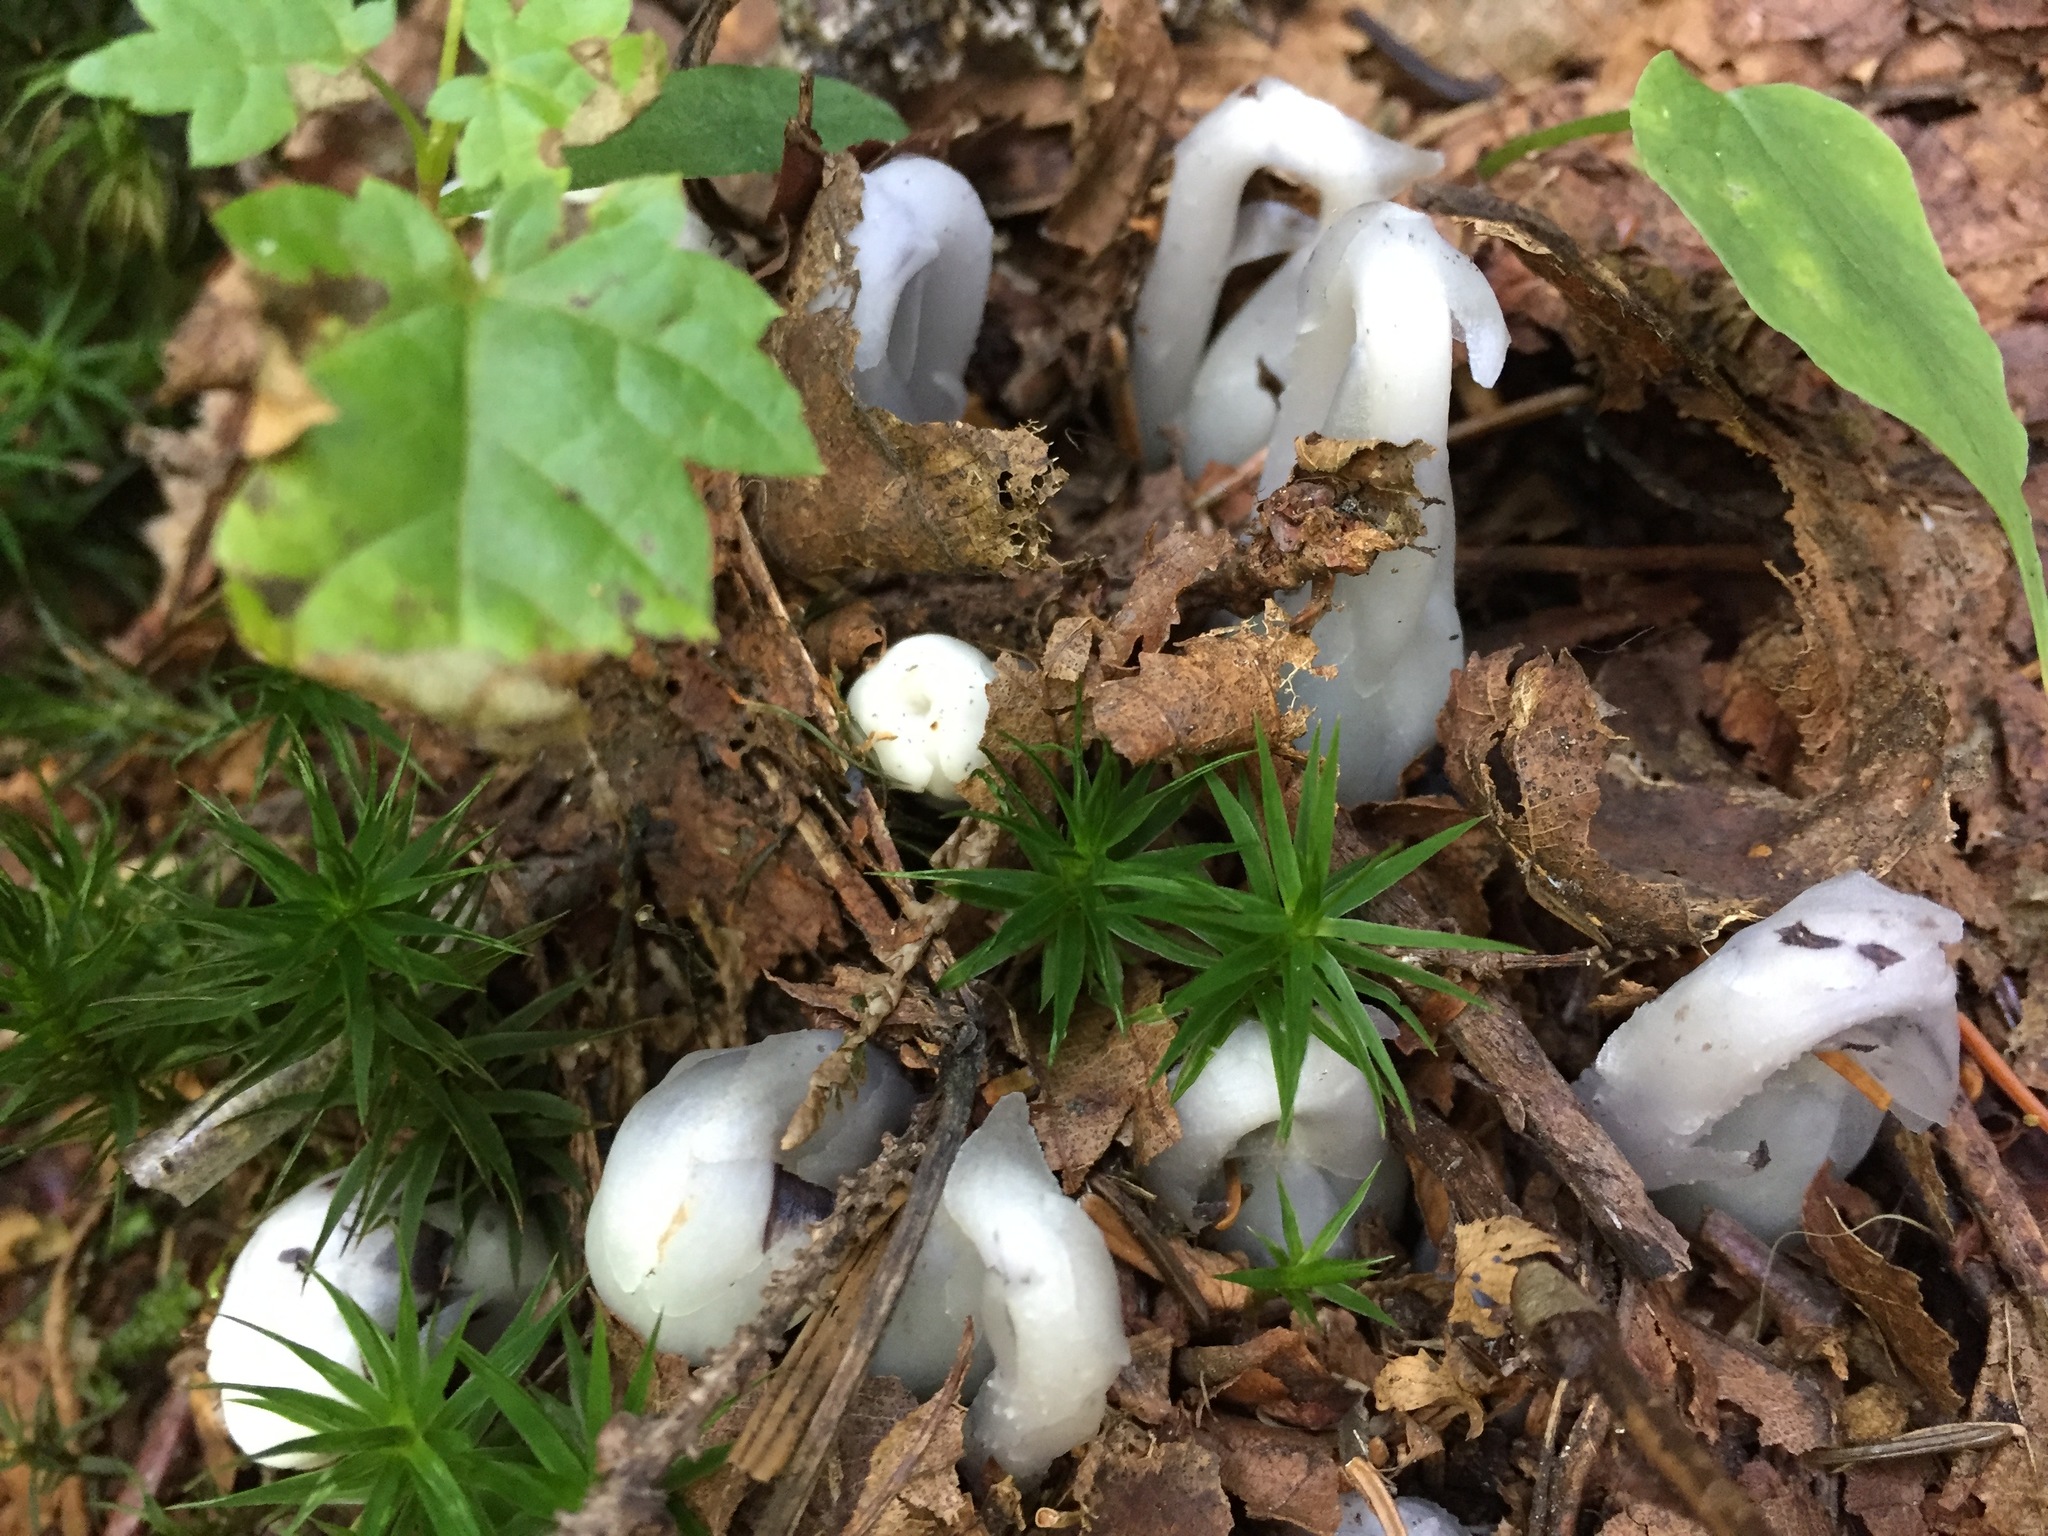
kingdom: Plantae
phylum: Tracheophyta
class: Magnoliopsida
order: Ericales
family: Ericaceae
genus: Monotropa
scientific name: Monotropa uniflora
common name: Convulsion root
